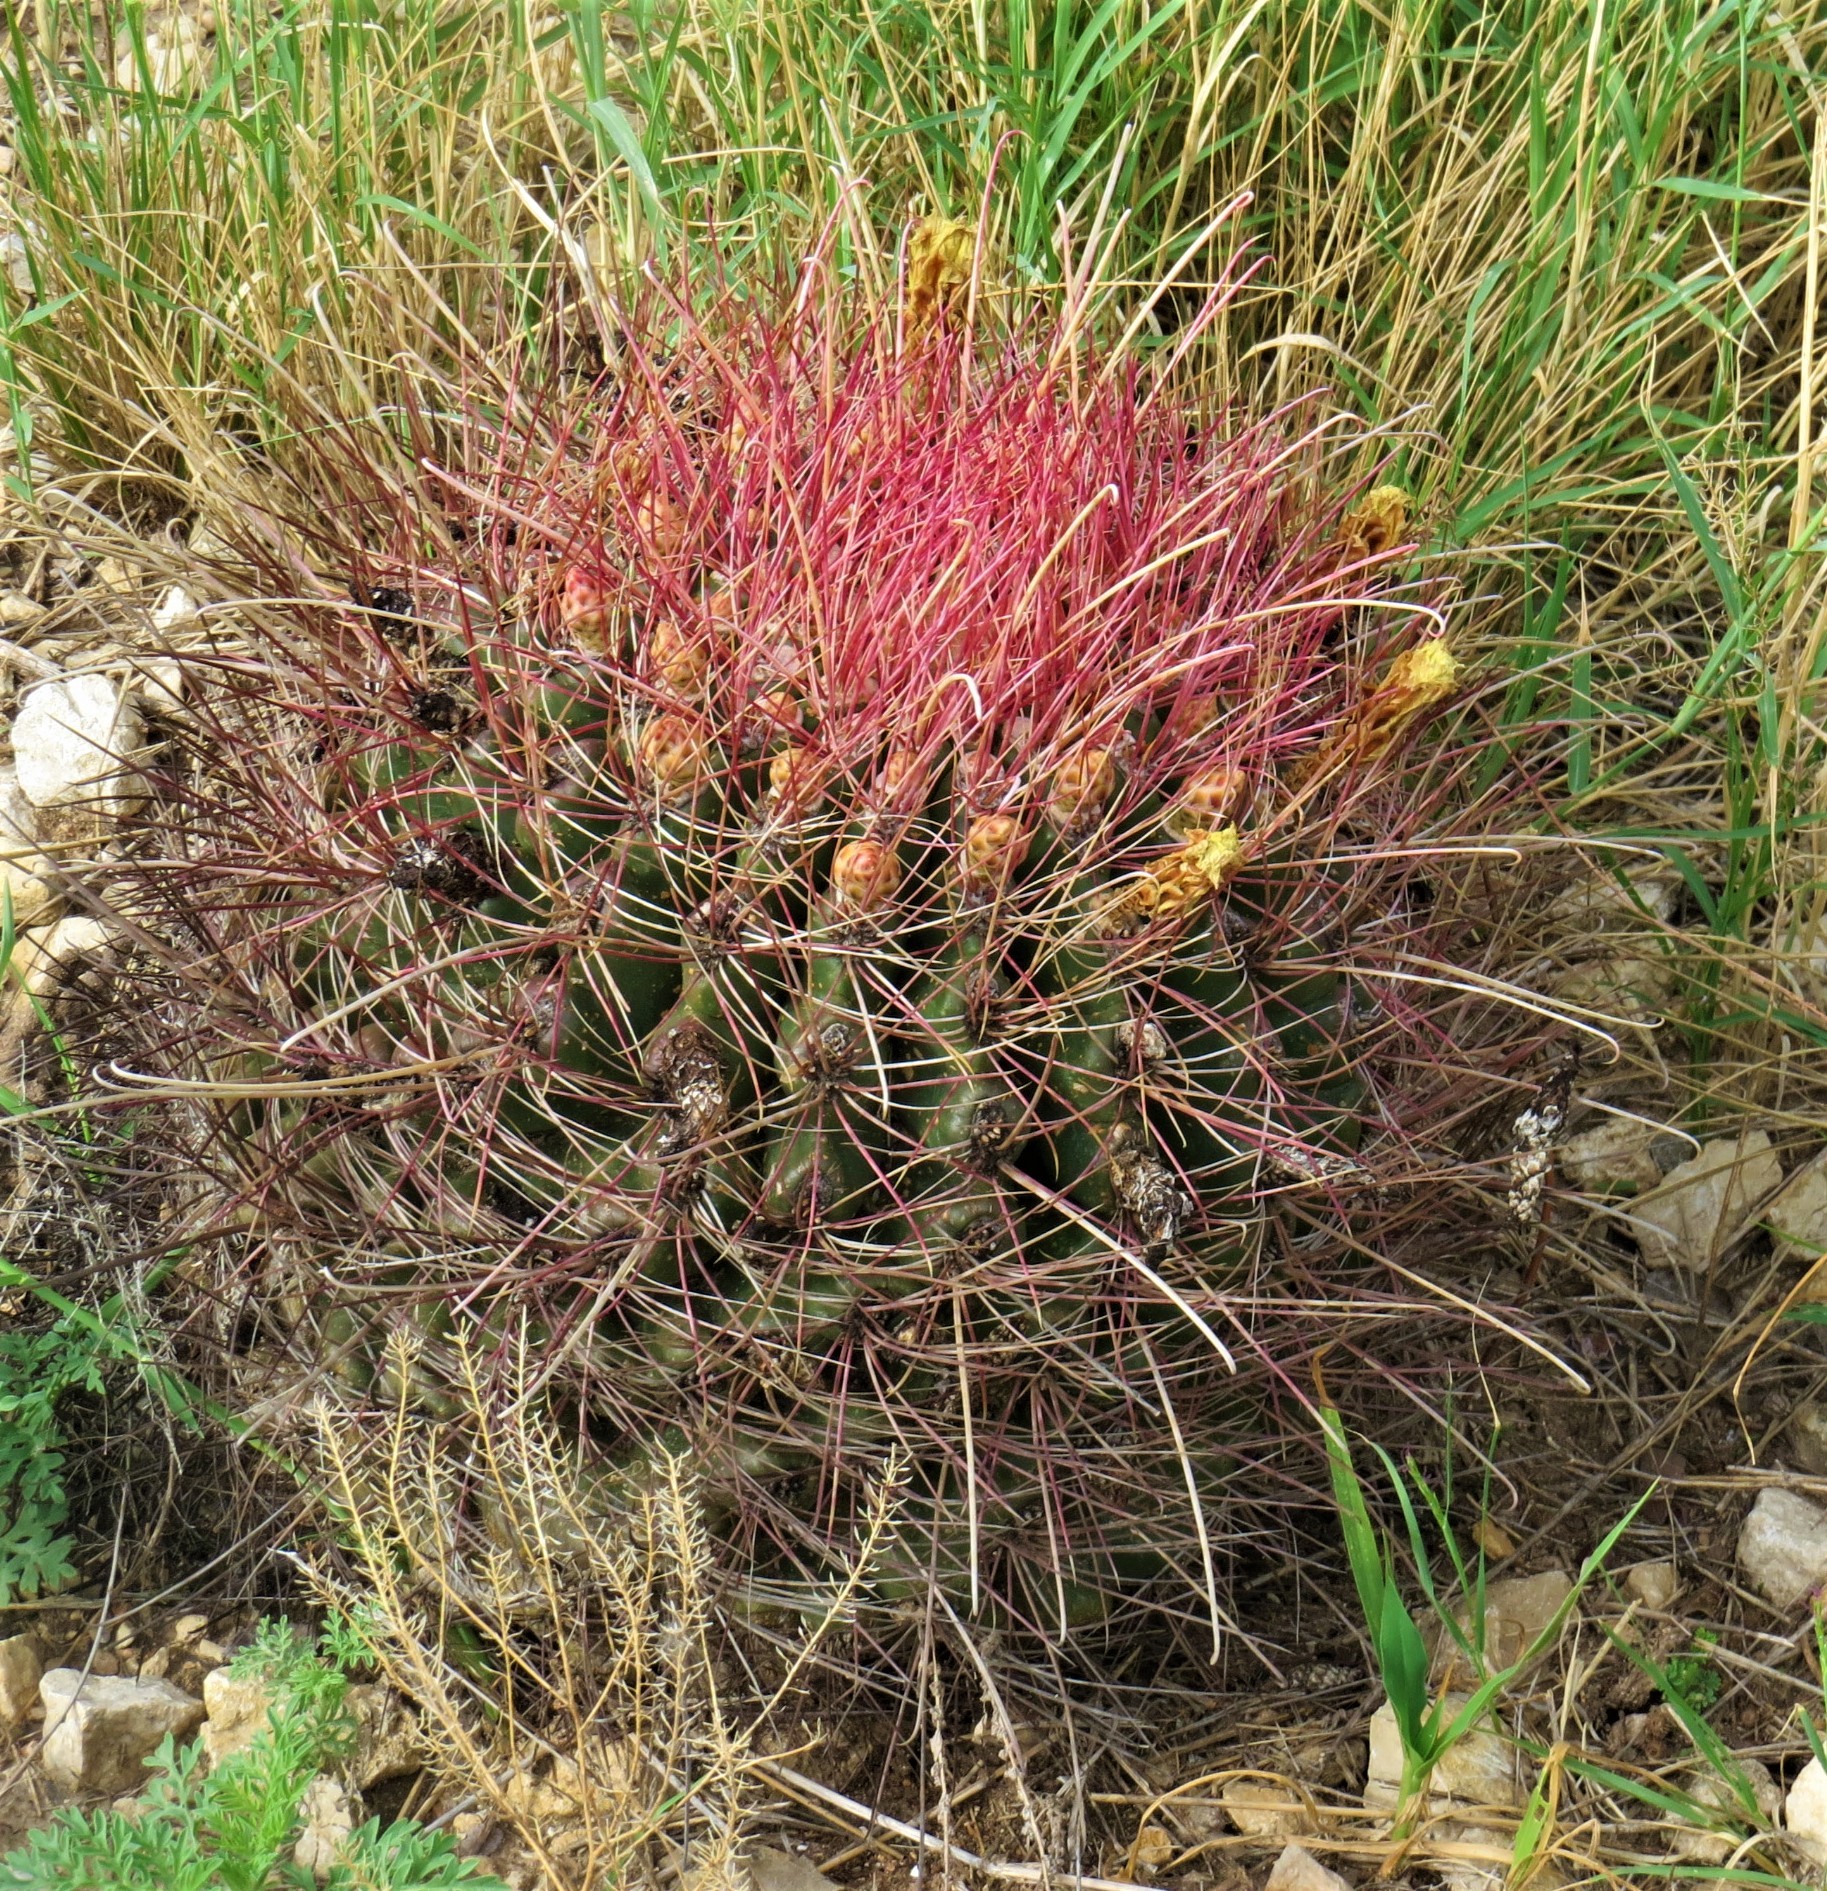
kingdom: Plantae
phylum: Tracheophyta
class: Magnoliopsida
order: Caryophyllales
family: Cactaceae
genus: Bisnaga
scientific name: Bisnaga hamatacantha
